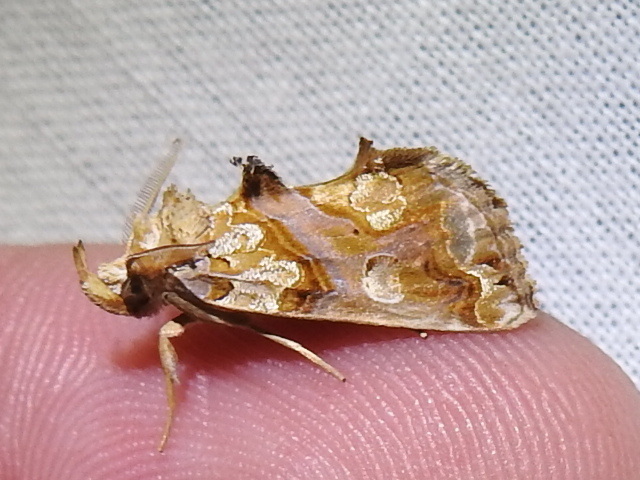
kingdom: Animalia
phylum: Arthropoda
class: Insecta
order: Lepidoptera
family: Erebidae
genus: Plusiodonta
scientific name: Plusiodonta compressipalpis
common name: Moonseed moth
